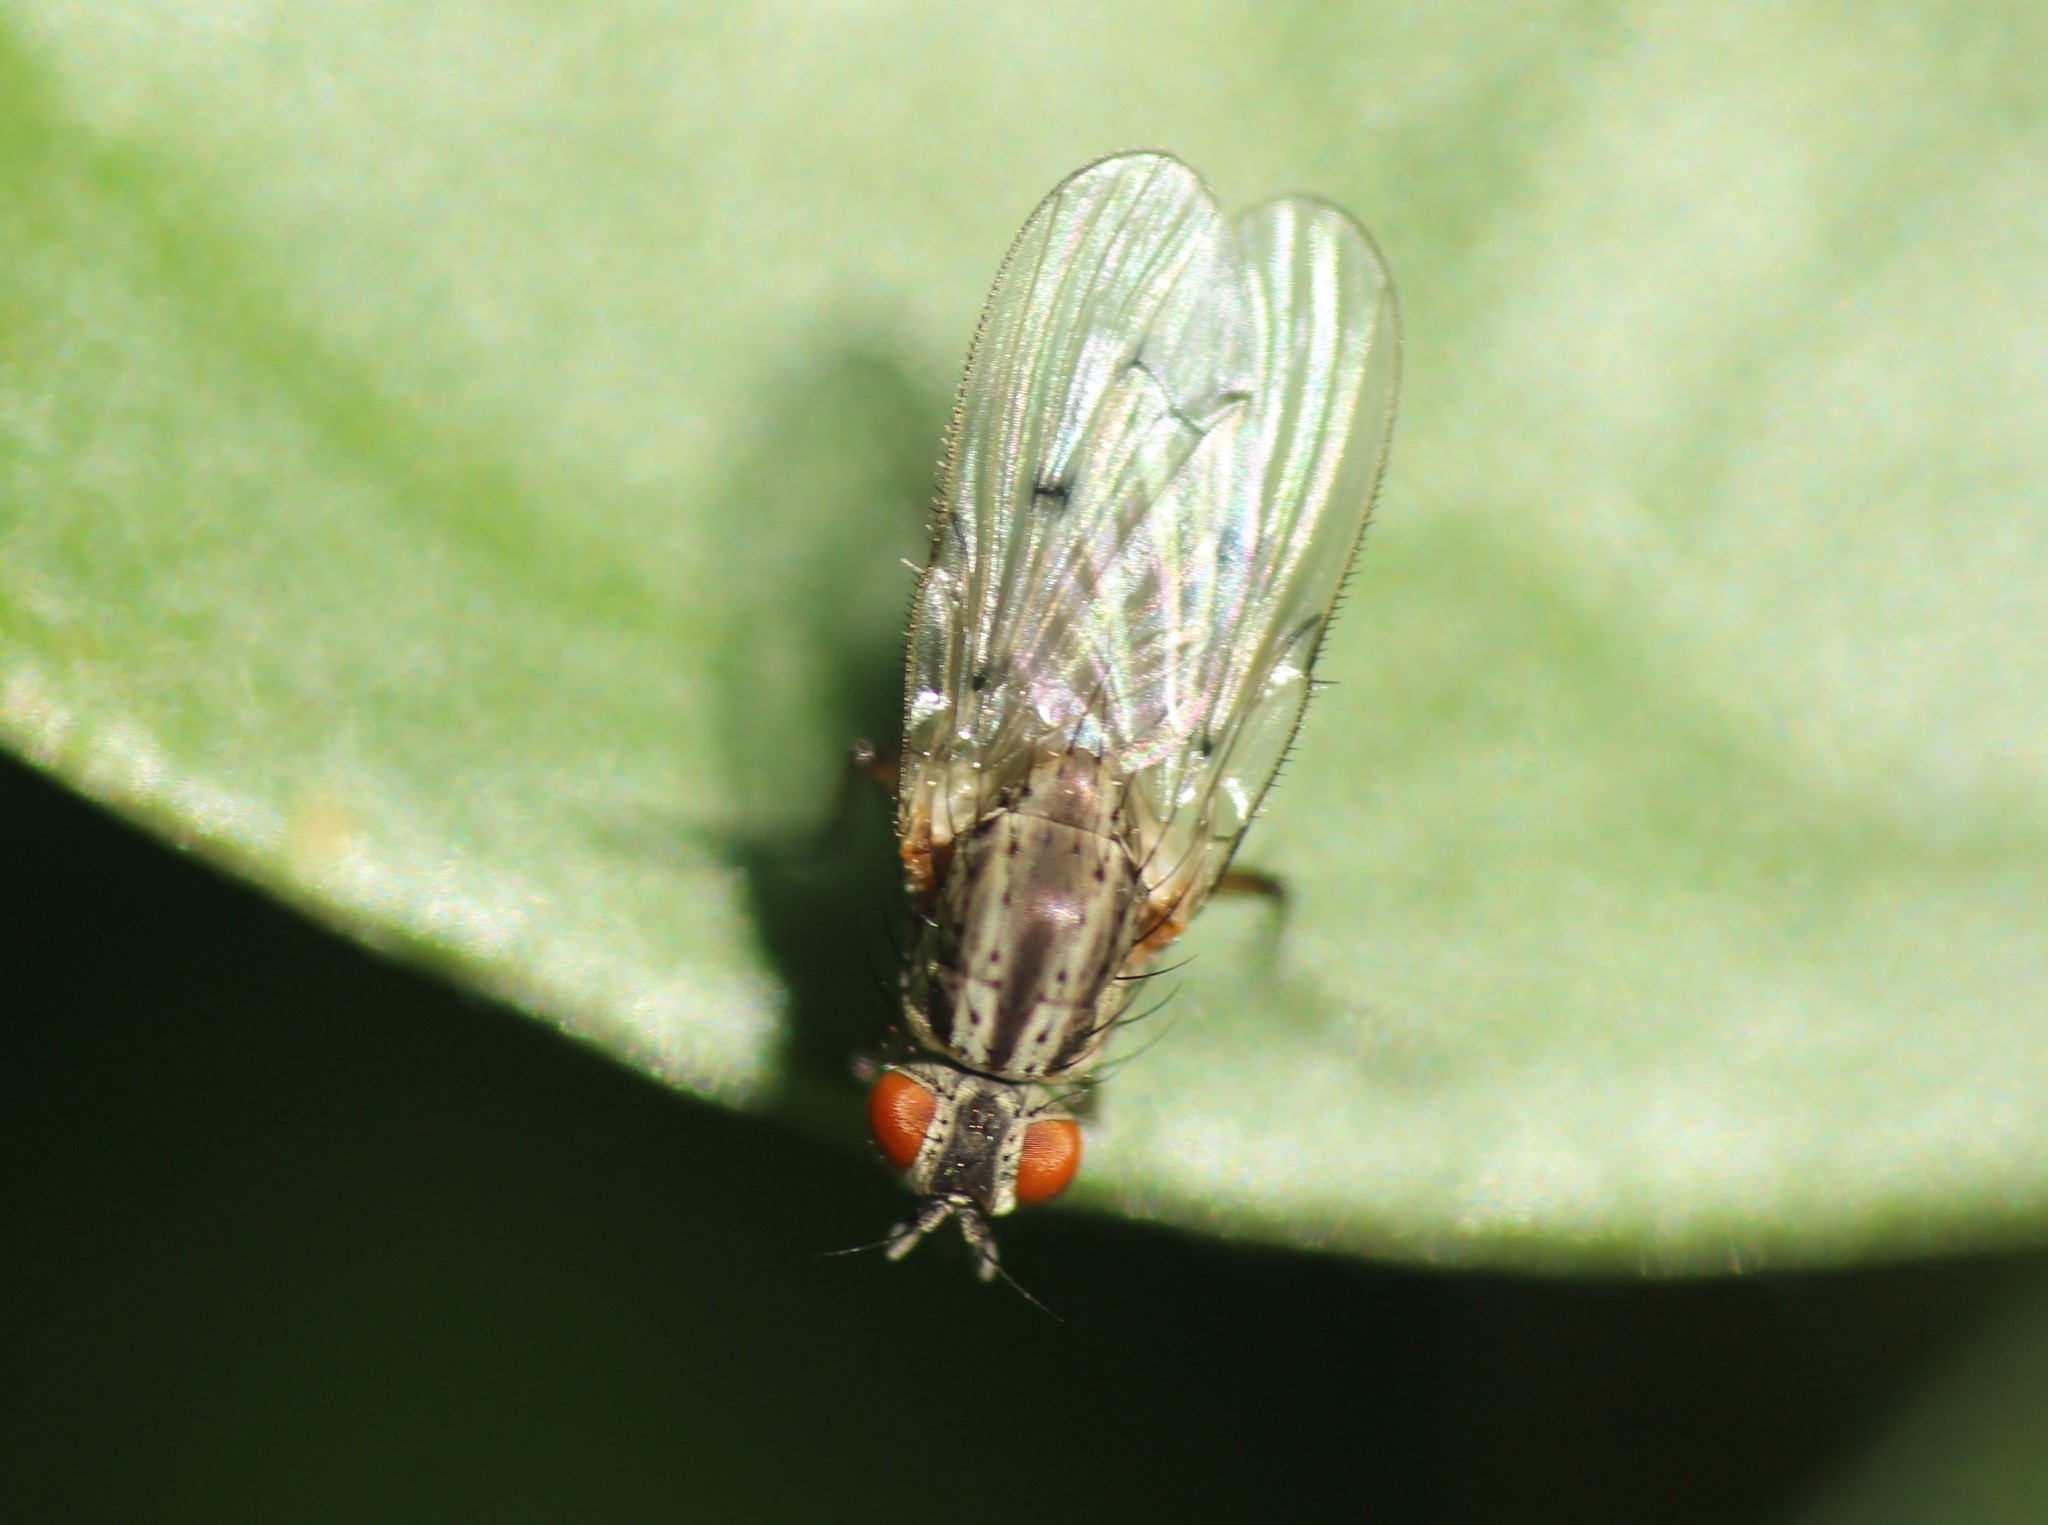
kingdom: Animalia
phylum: Arthropoda
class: Insecta
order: Diptera
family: Anthomyiidae
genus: Anthomyia
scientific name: Anthomyia punctipennis
